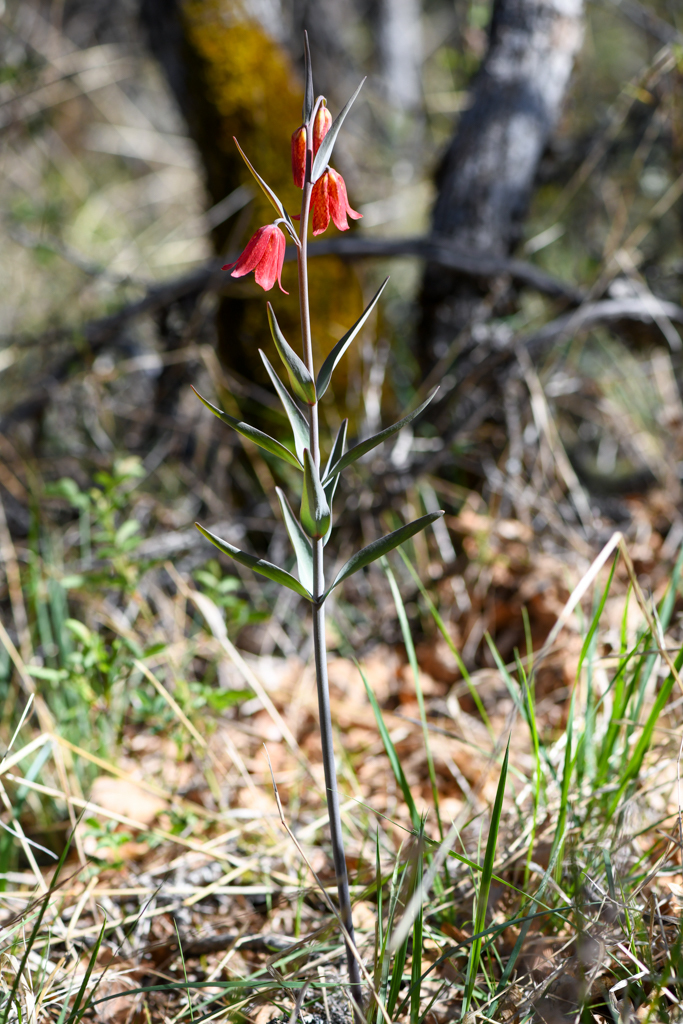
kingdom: Plantae
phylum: Tracheophyta
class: Liliopsida
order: Liliales
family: Liliaceae
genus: Fritillaria
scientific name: Fritillaria gentneri
